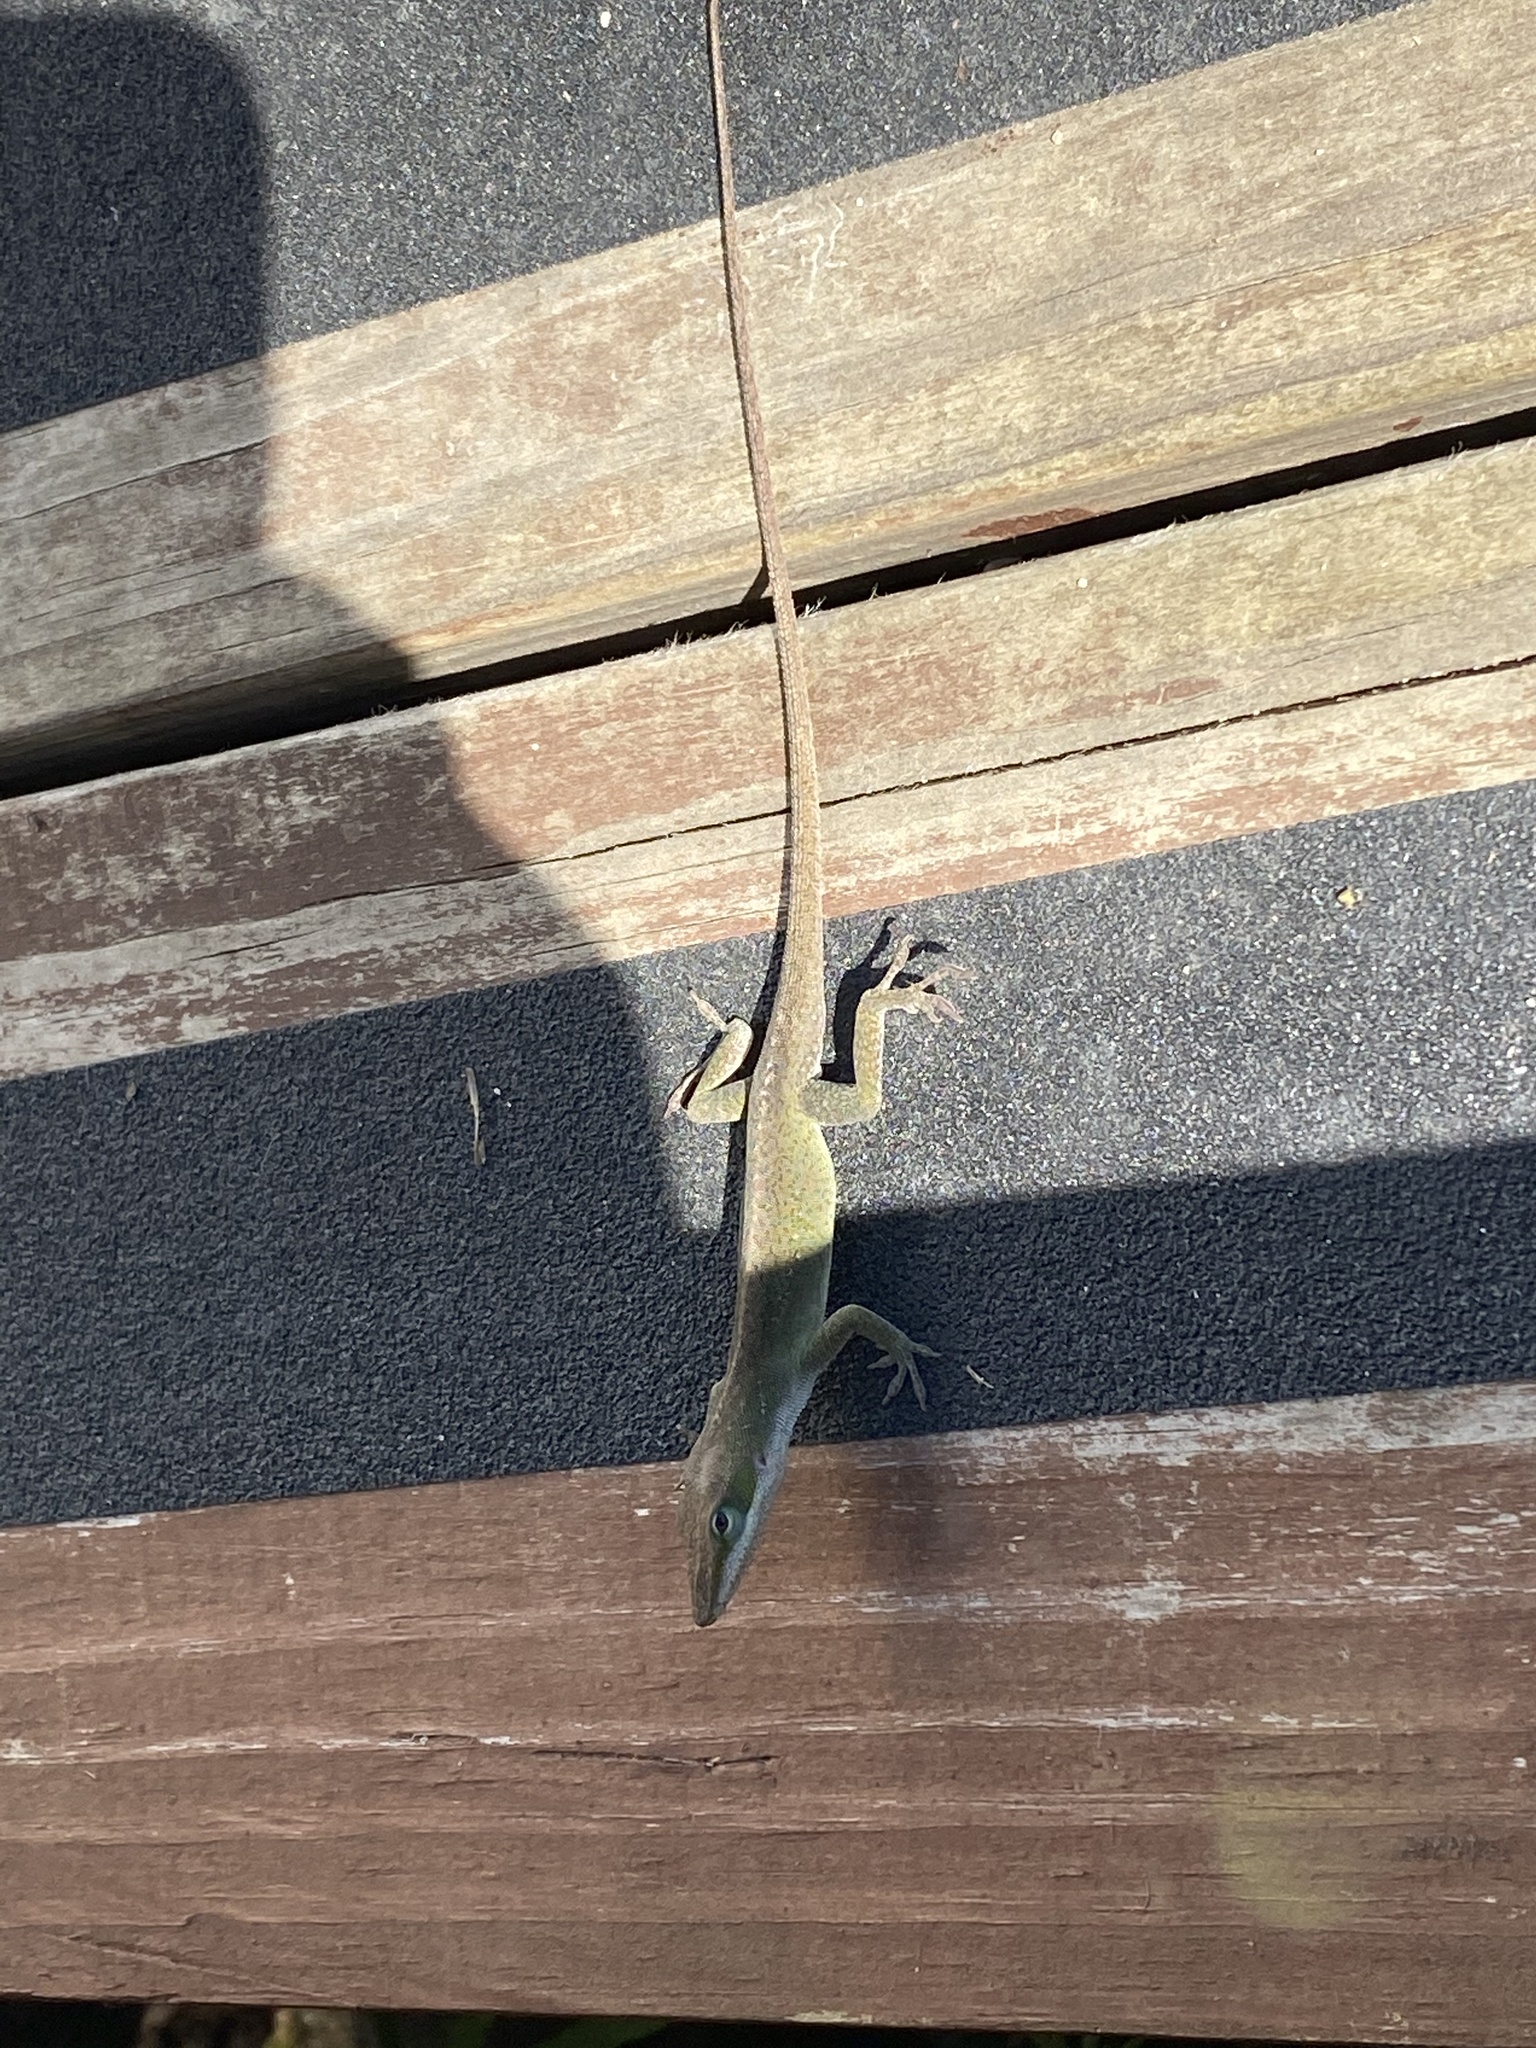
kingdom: Animalia
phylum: Chordata
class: Squamata
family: Dactyloidae
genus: Anolis
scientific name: Anolis carolinensis
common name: Green anole
